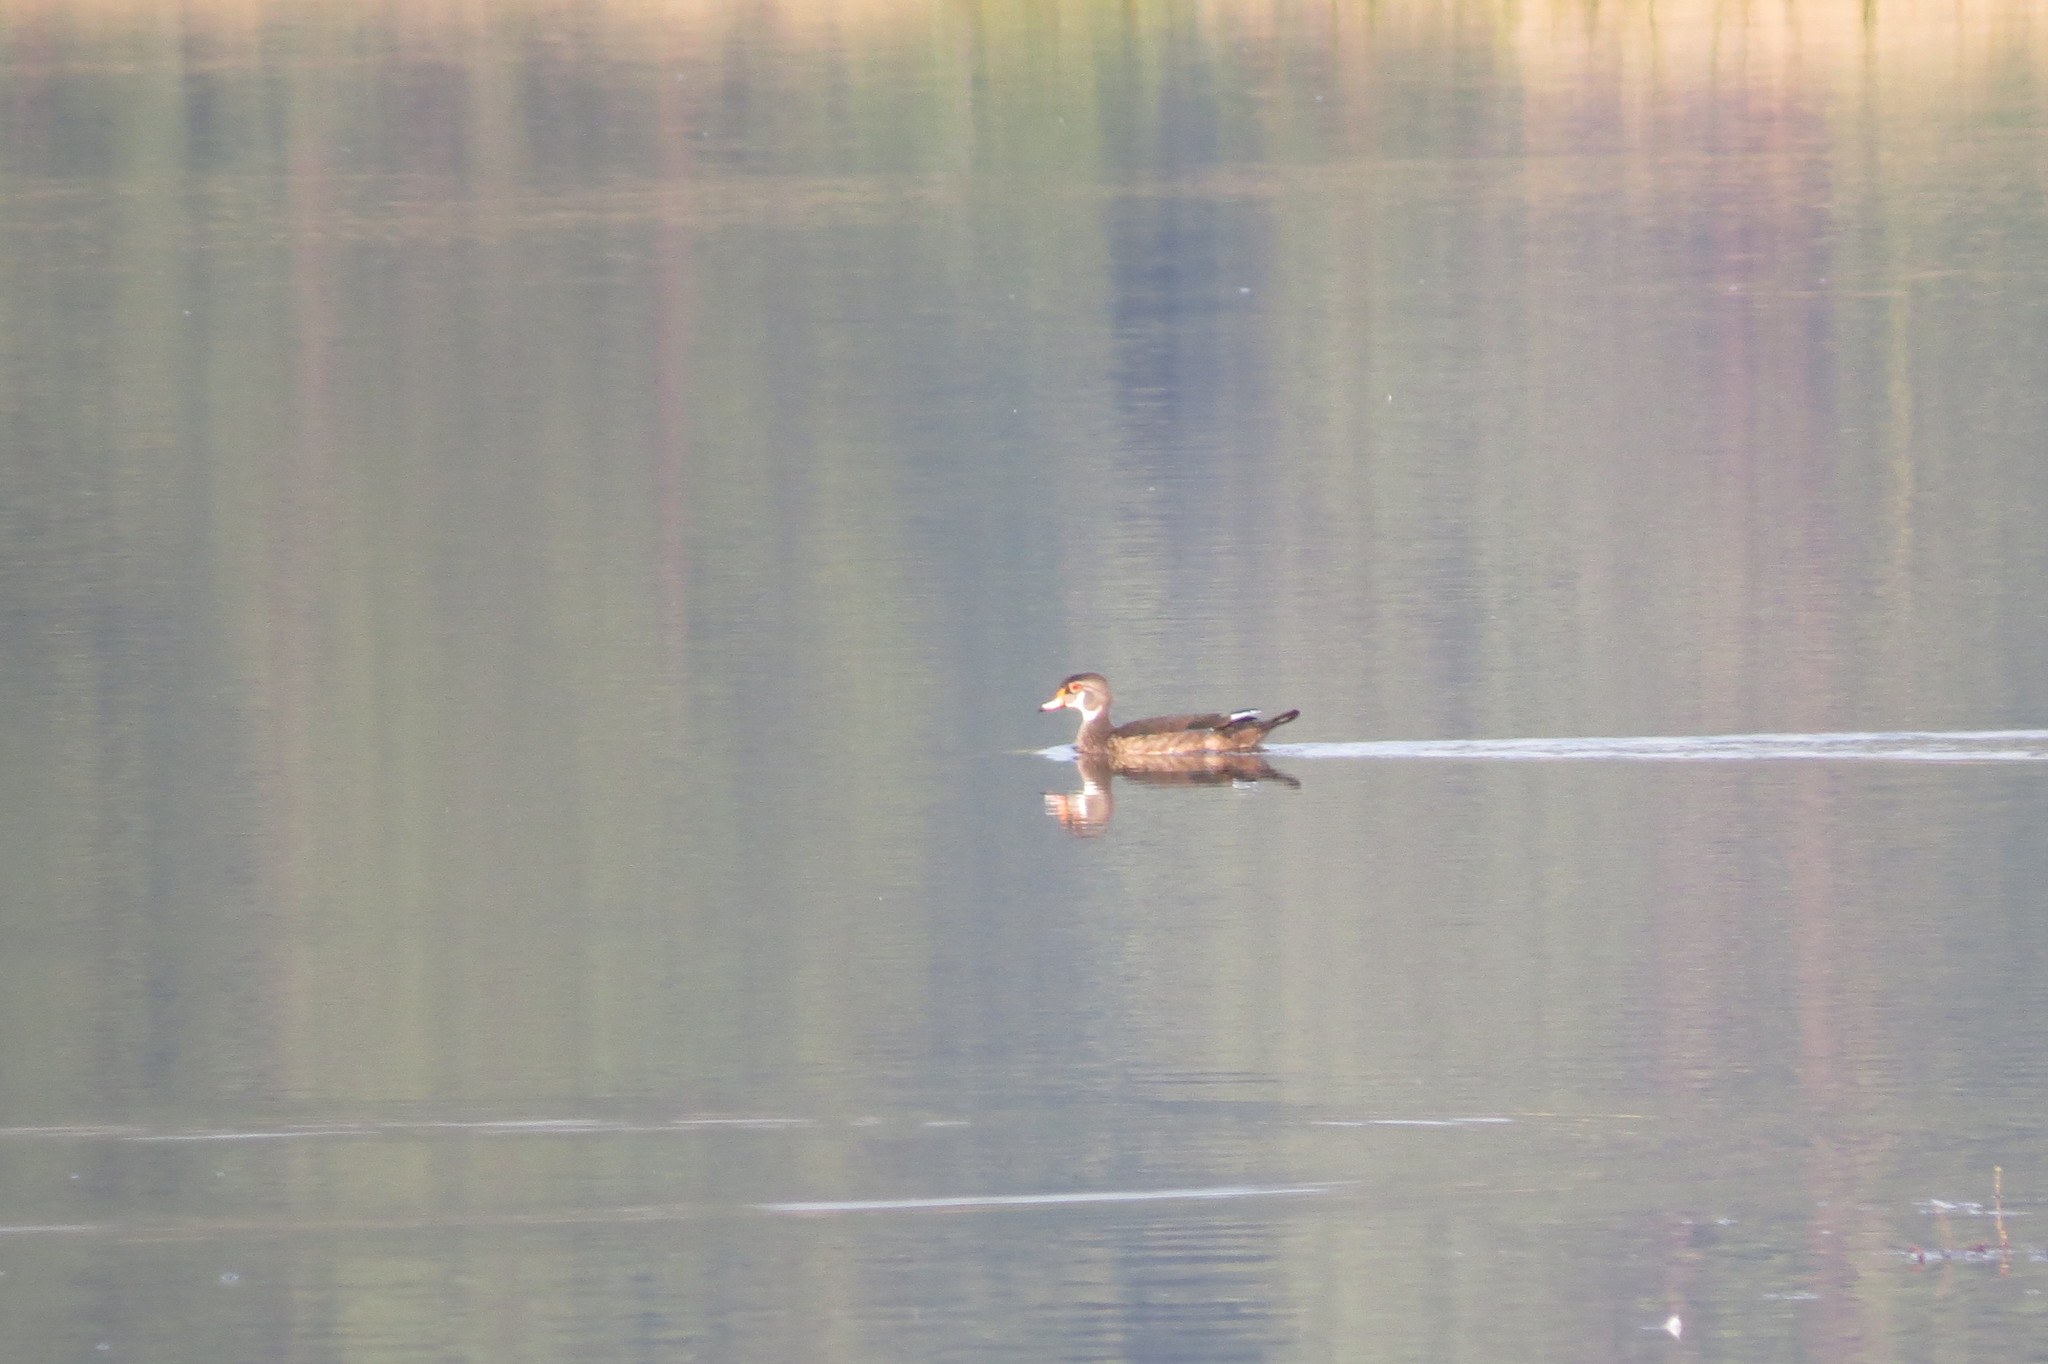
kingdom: Animalia
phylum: Chordata
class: Aves
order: Anseriformes
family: Anatidae
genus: Aix
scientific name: Aix sponsa
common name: Wood duck
